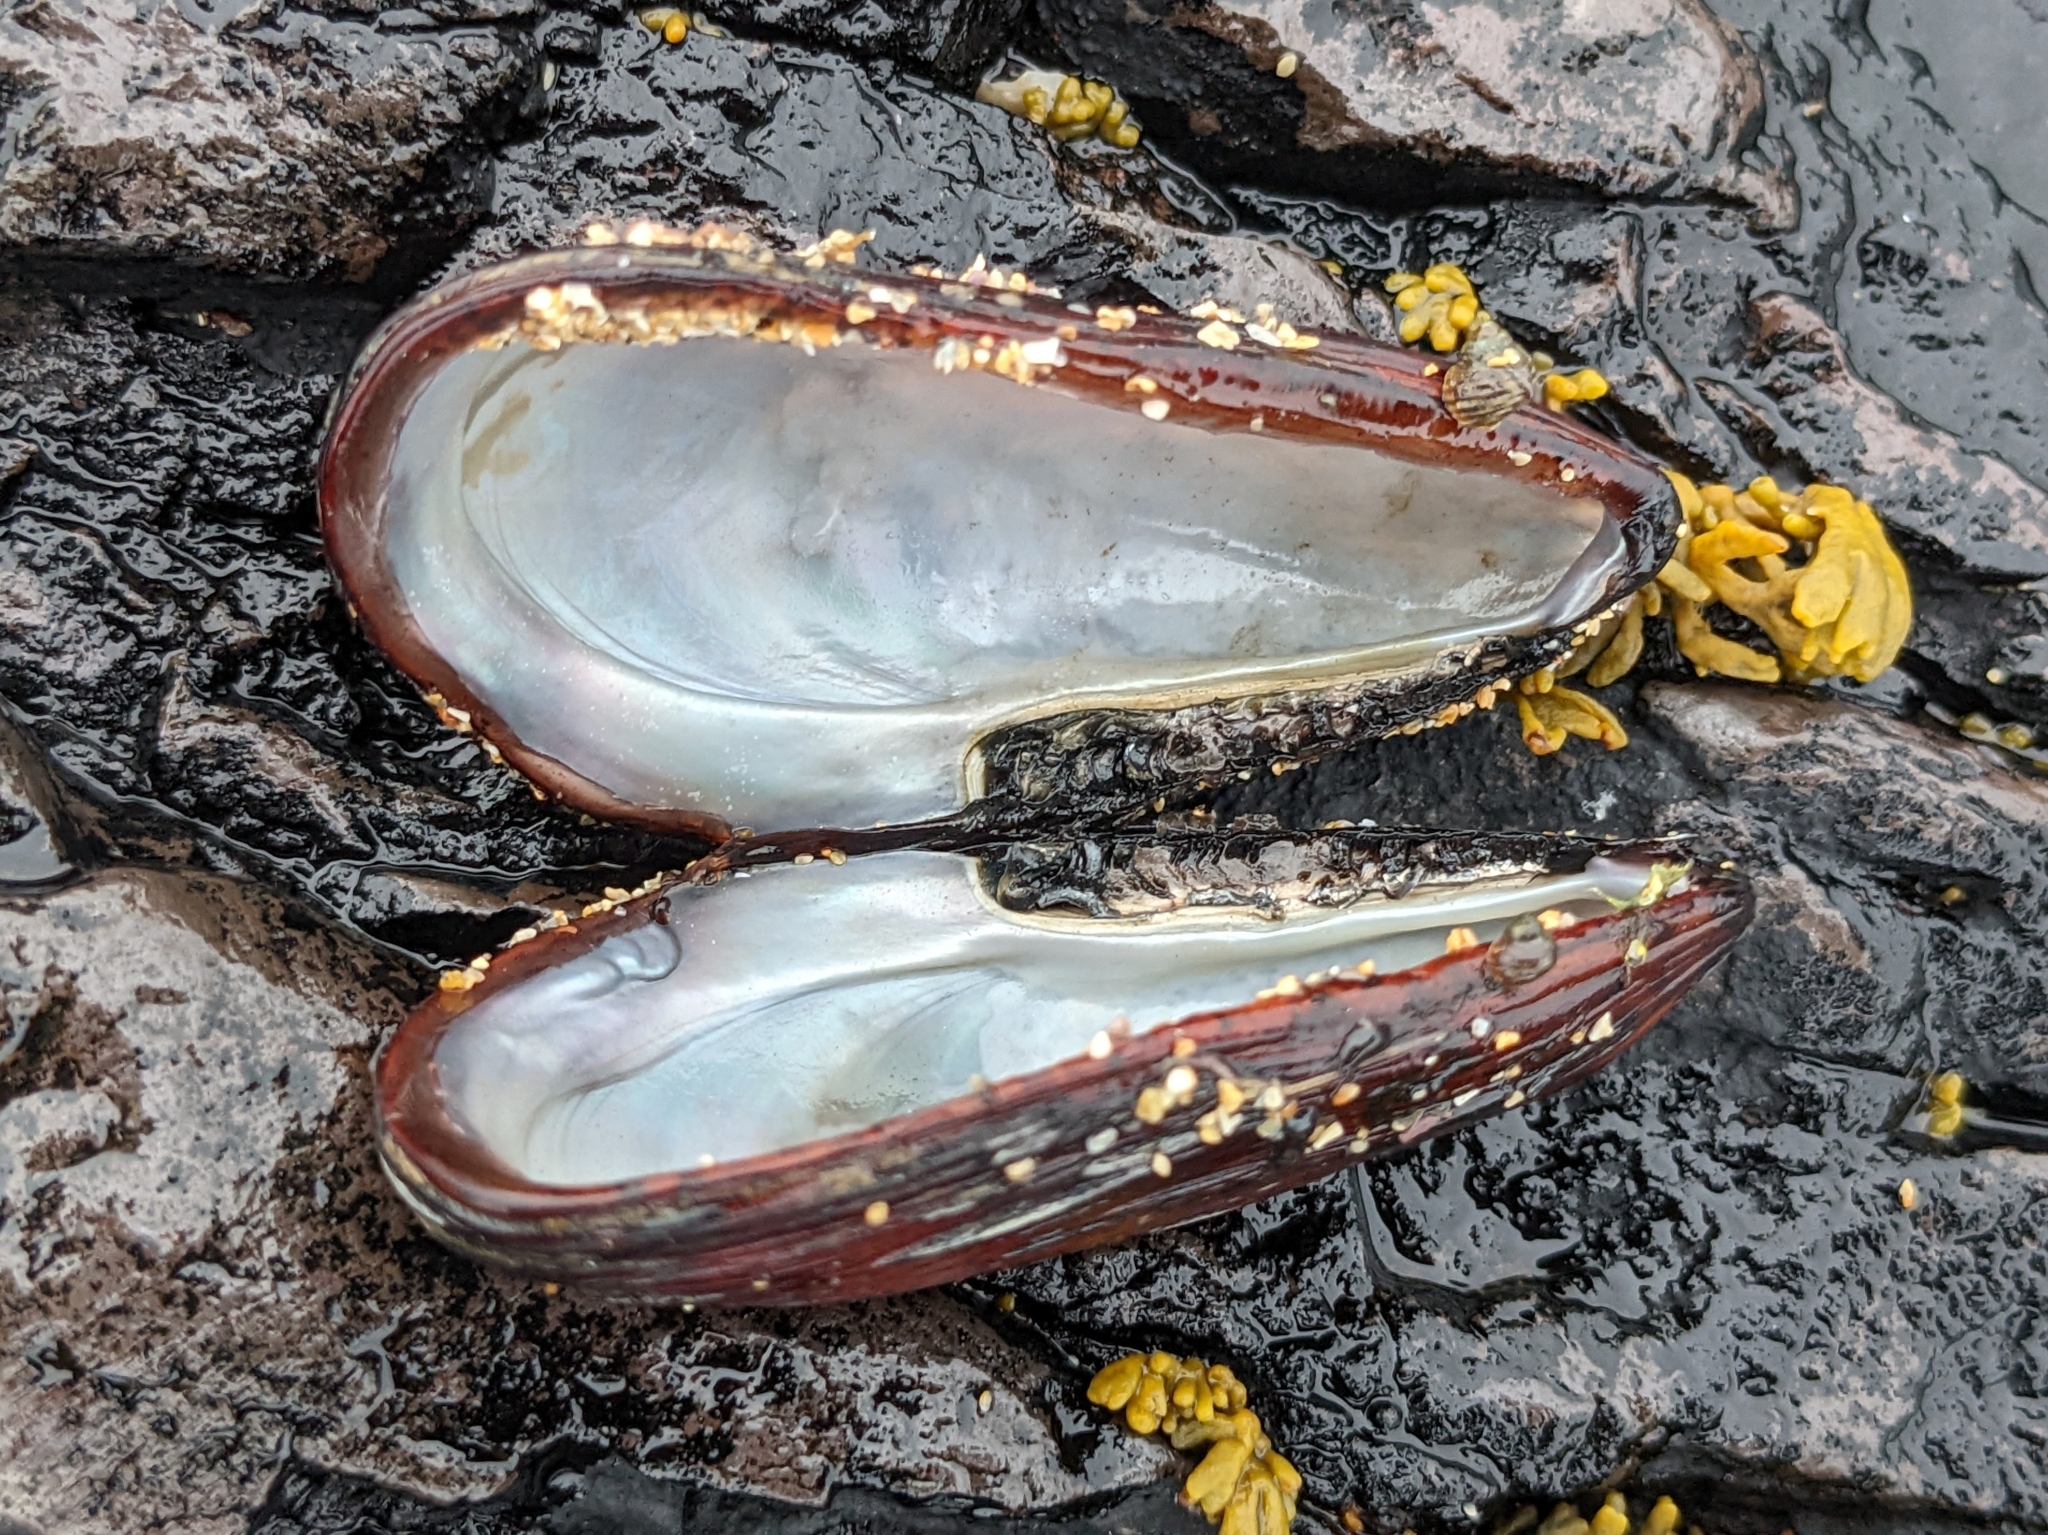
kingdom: Animalia
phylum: Mollusca
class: Bivalvia
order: Mytilida
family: Mytilidae
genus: Modiolus
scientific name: Modiolus modiolus
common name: Horse-mussel
